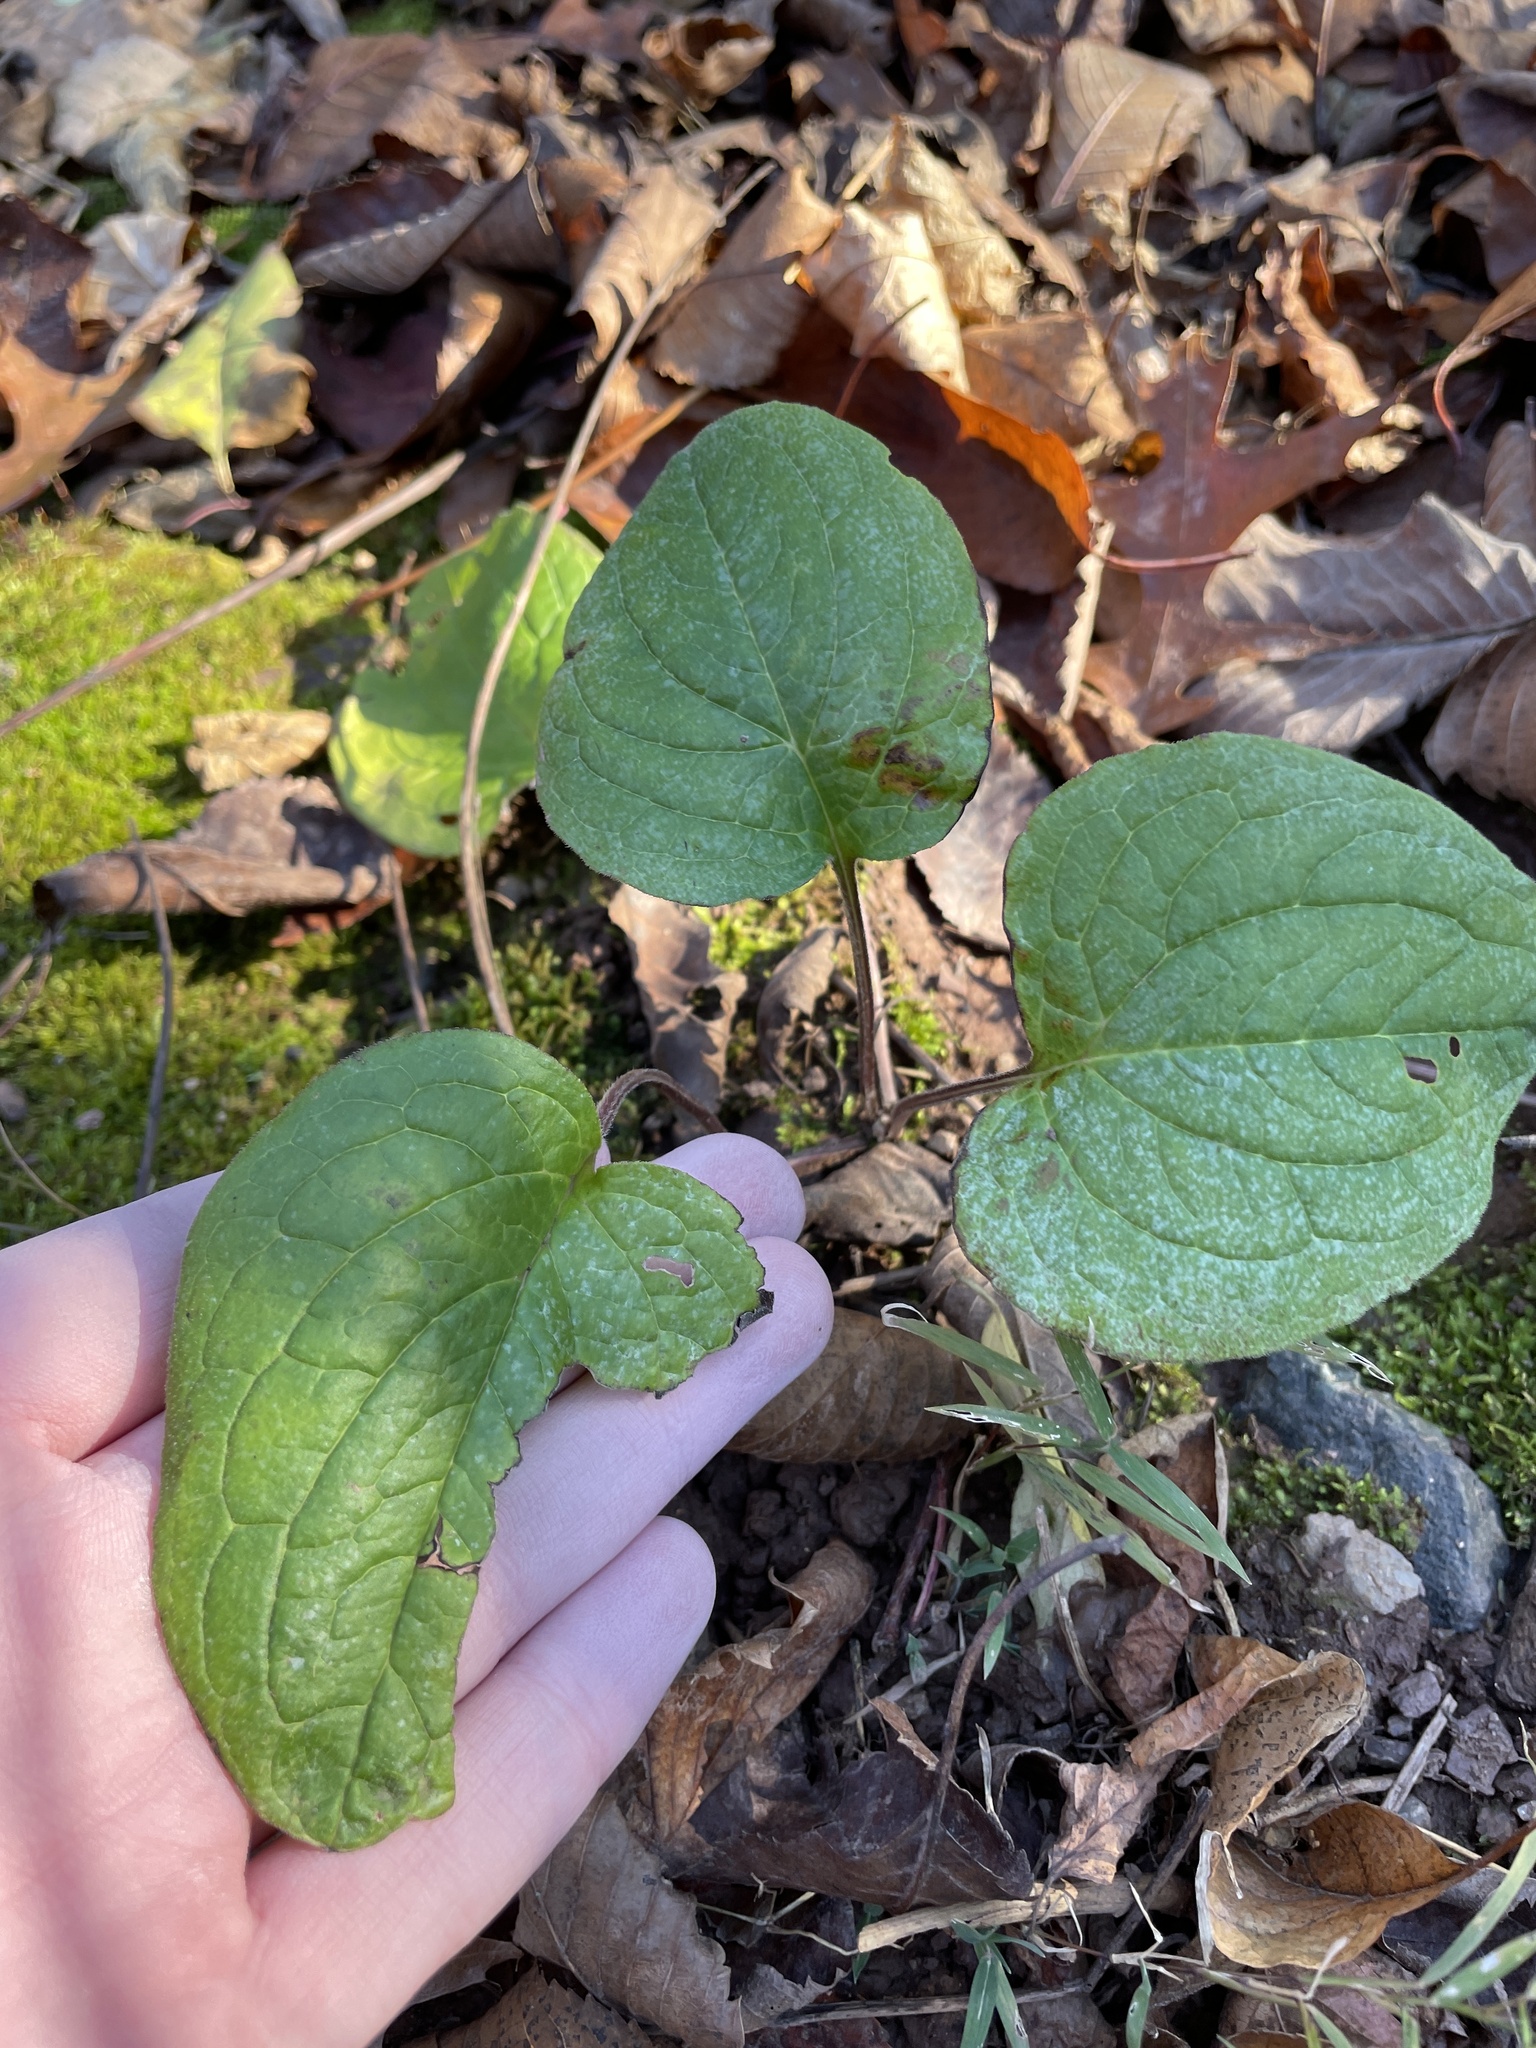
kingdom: Plantae
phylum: Tracheophyta
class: Magnoliopsida
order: Boraginales
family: Boraginaceae
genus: Hackelia
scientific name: Hackelia virginiana
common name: Beggar's-lice
